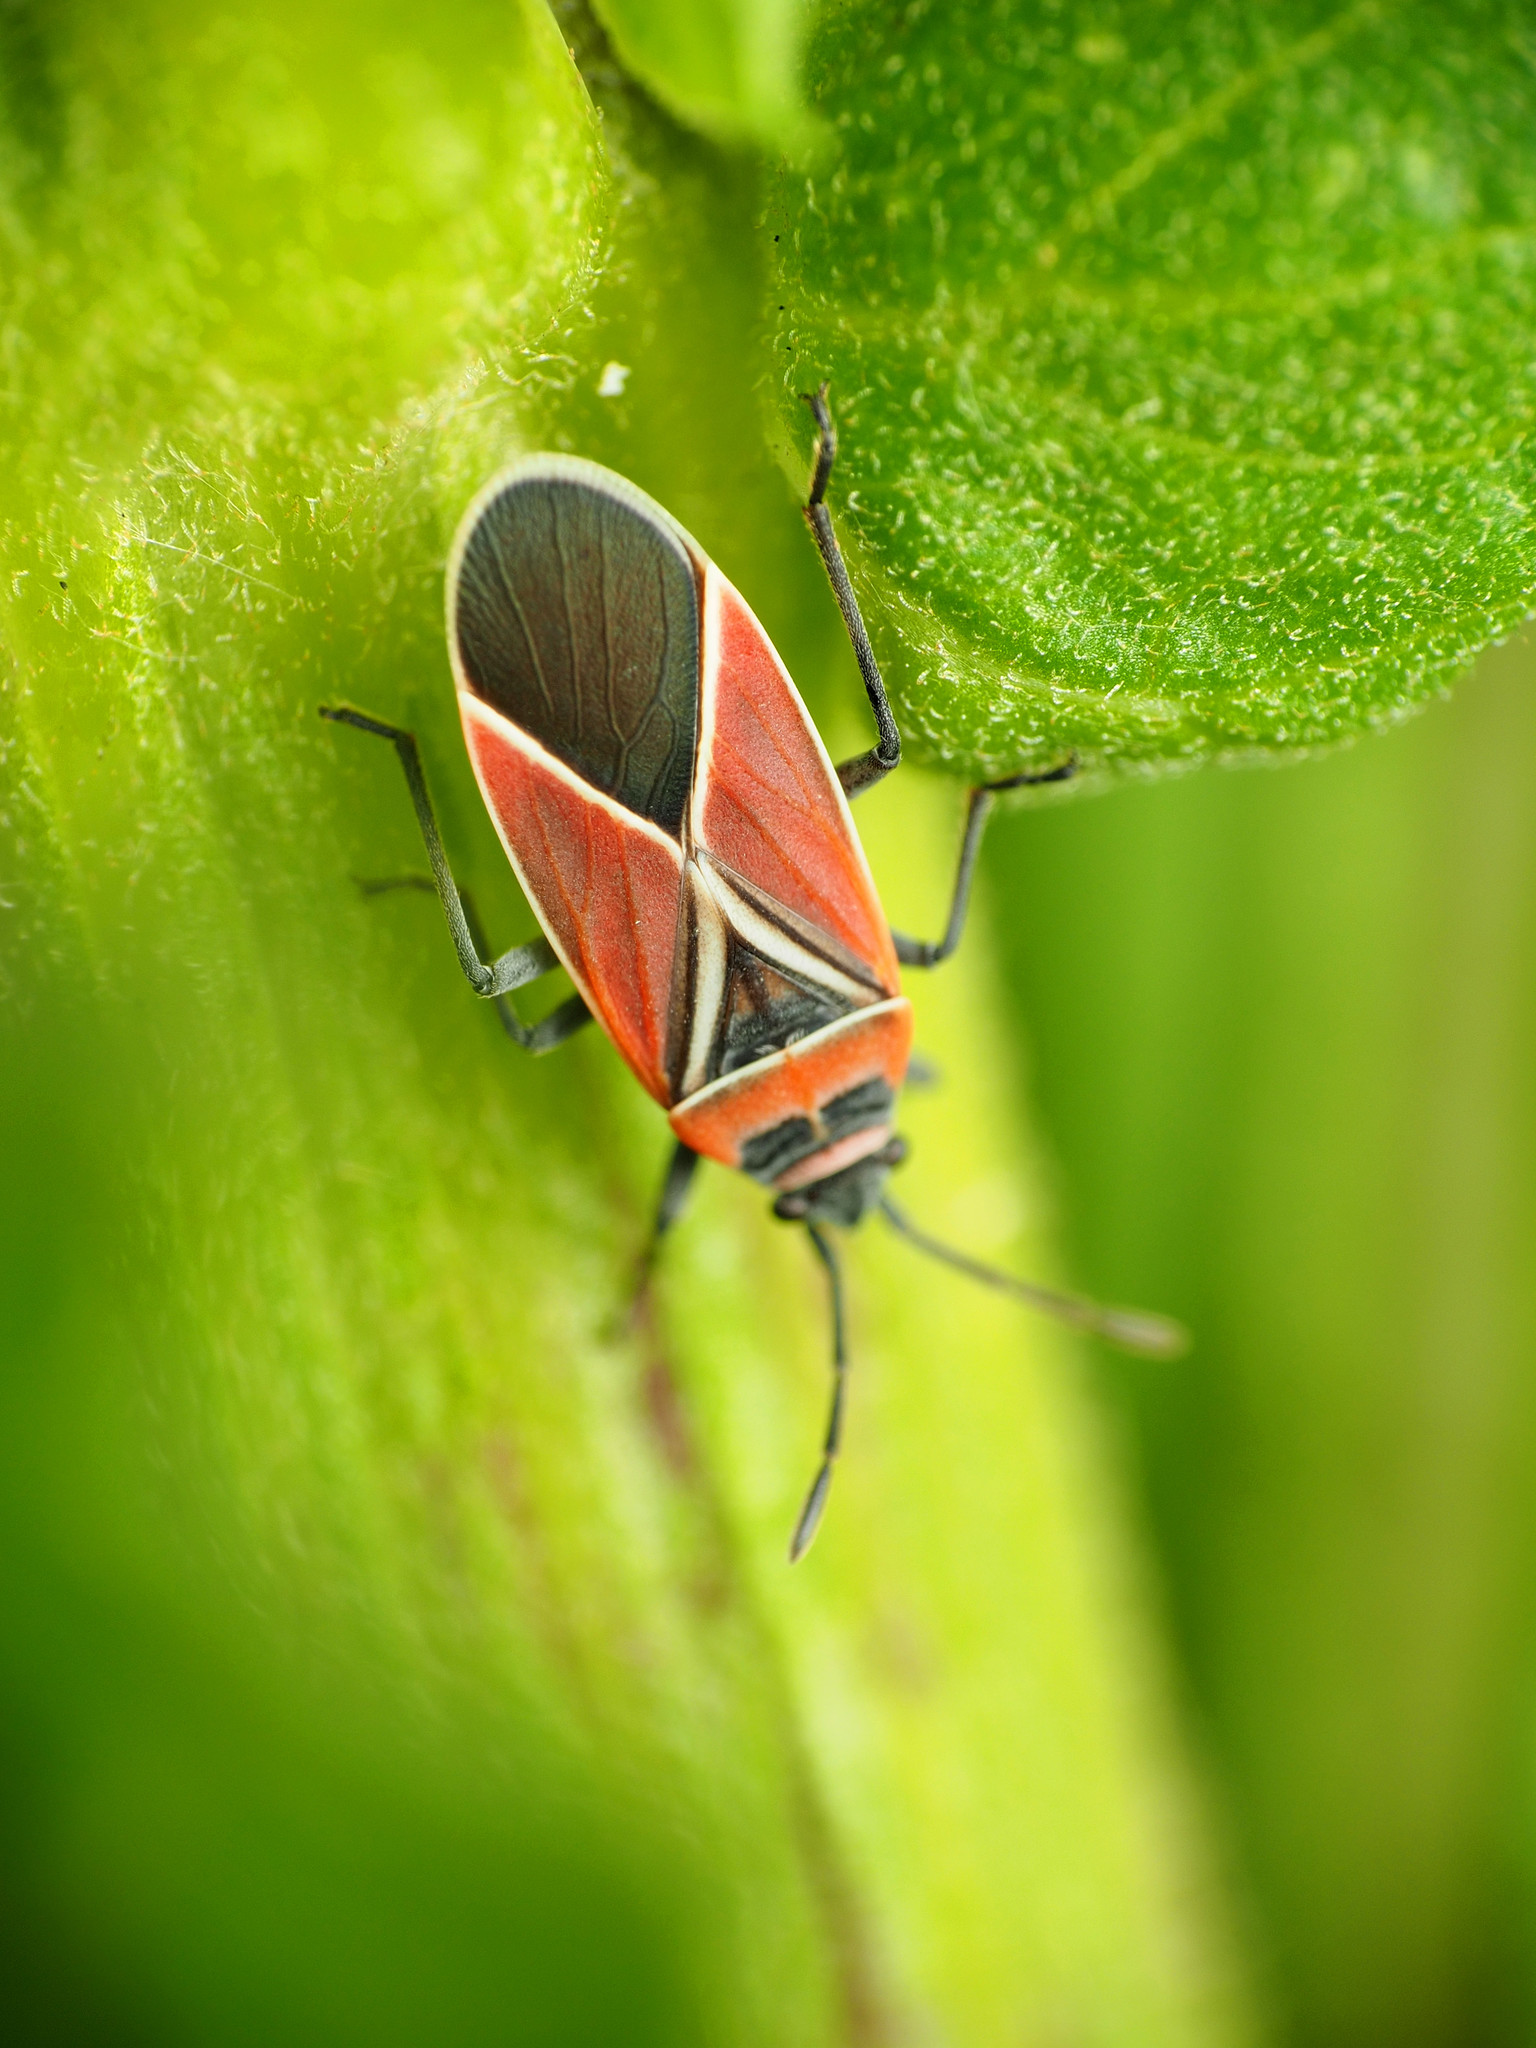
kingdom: Animalia
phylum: Arthropoda
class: Insecta
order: Hemiptera
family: Lygaeidae
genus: Neacoryphus
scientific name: Neacoryphus bicrucis
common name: Lygaeid bug
